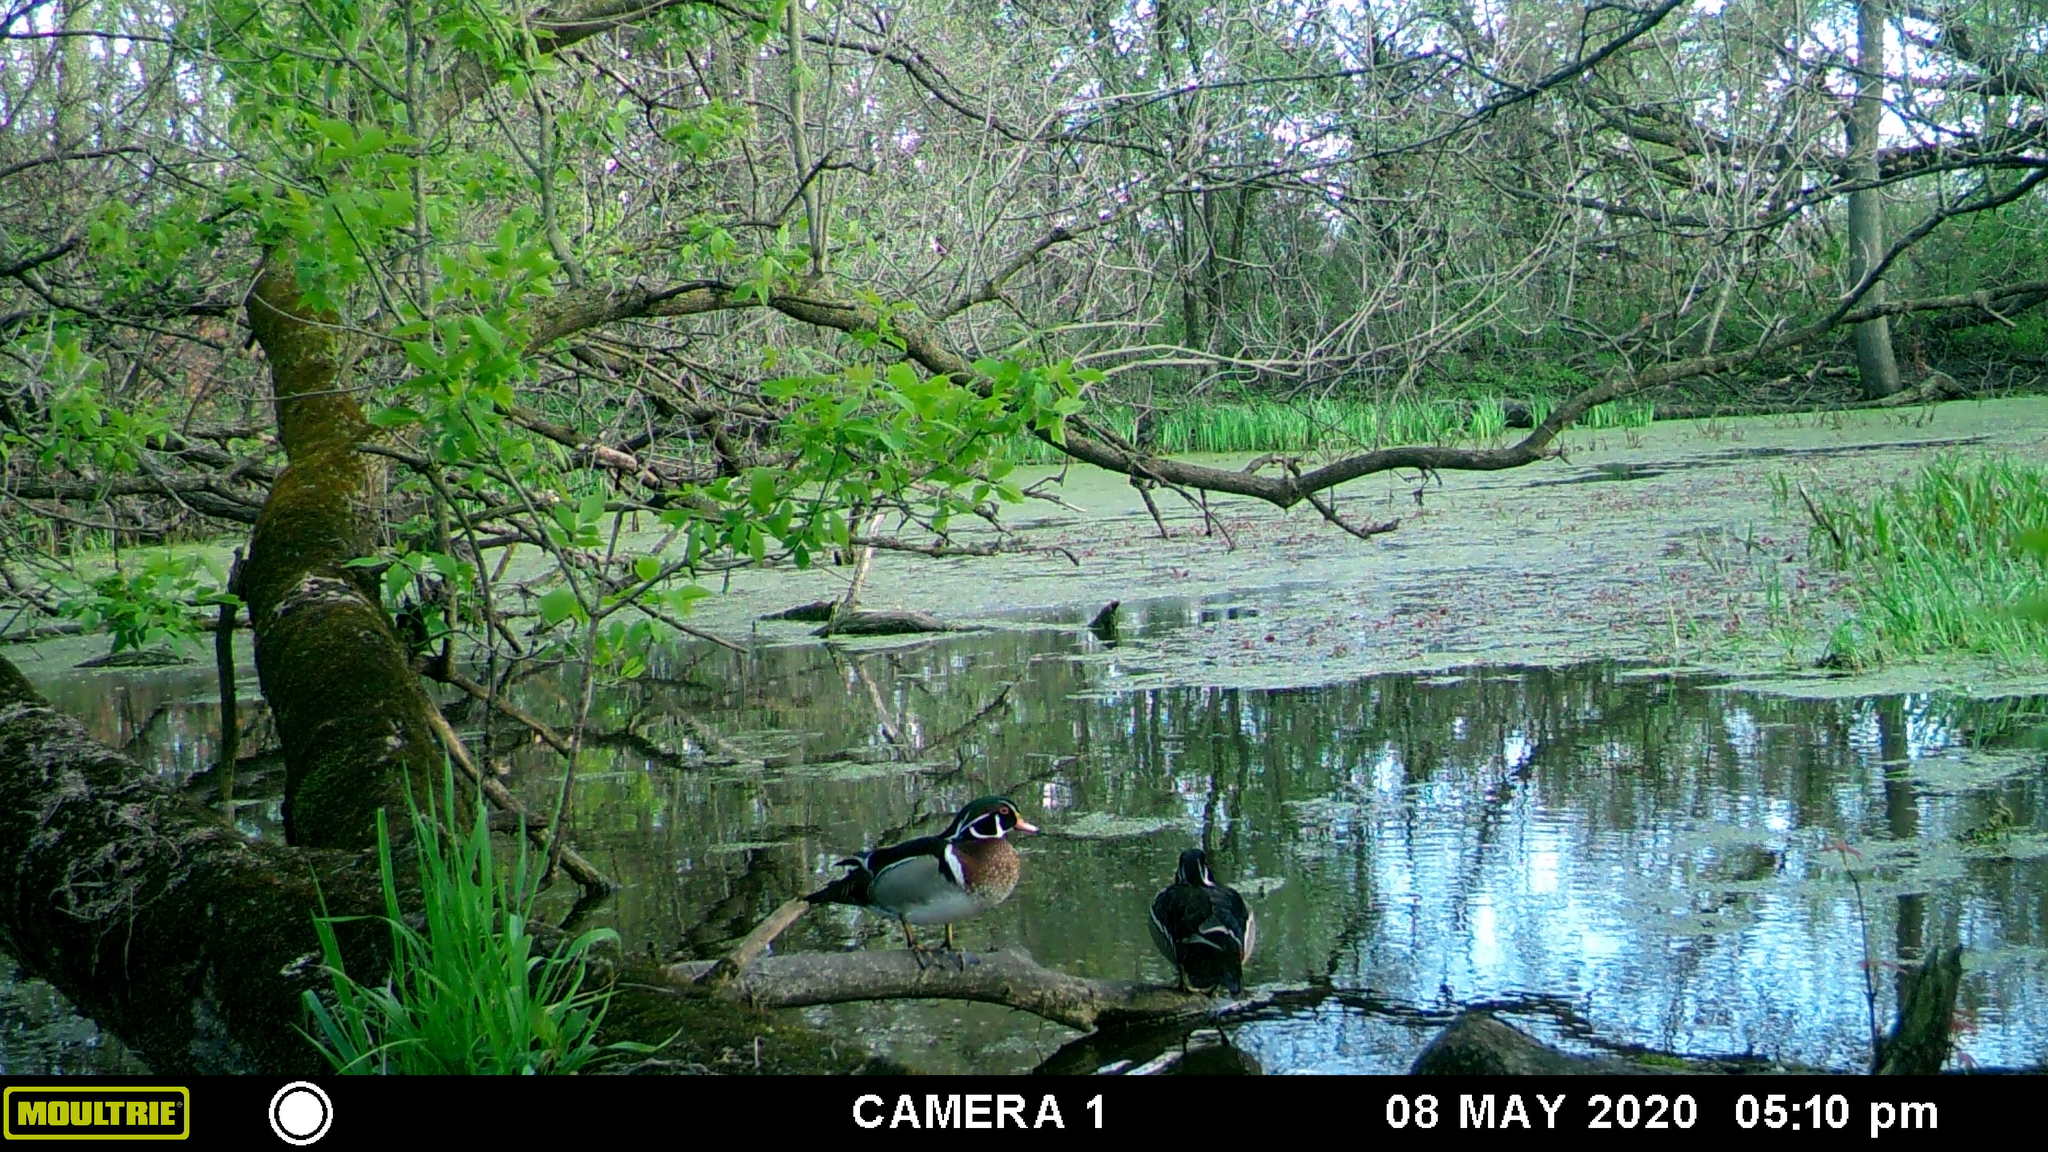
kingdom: Animalia
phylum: Chordata
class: Aves
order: Anseriformes
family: Anatidae
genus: Aix
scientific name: Aix sponsa
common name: Wood duck
